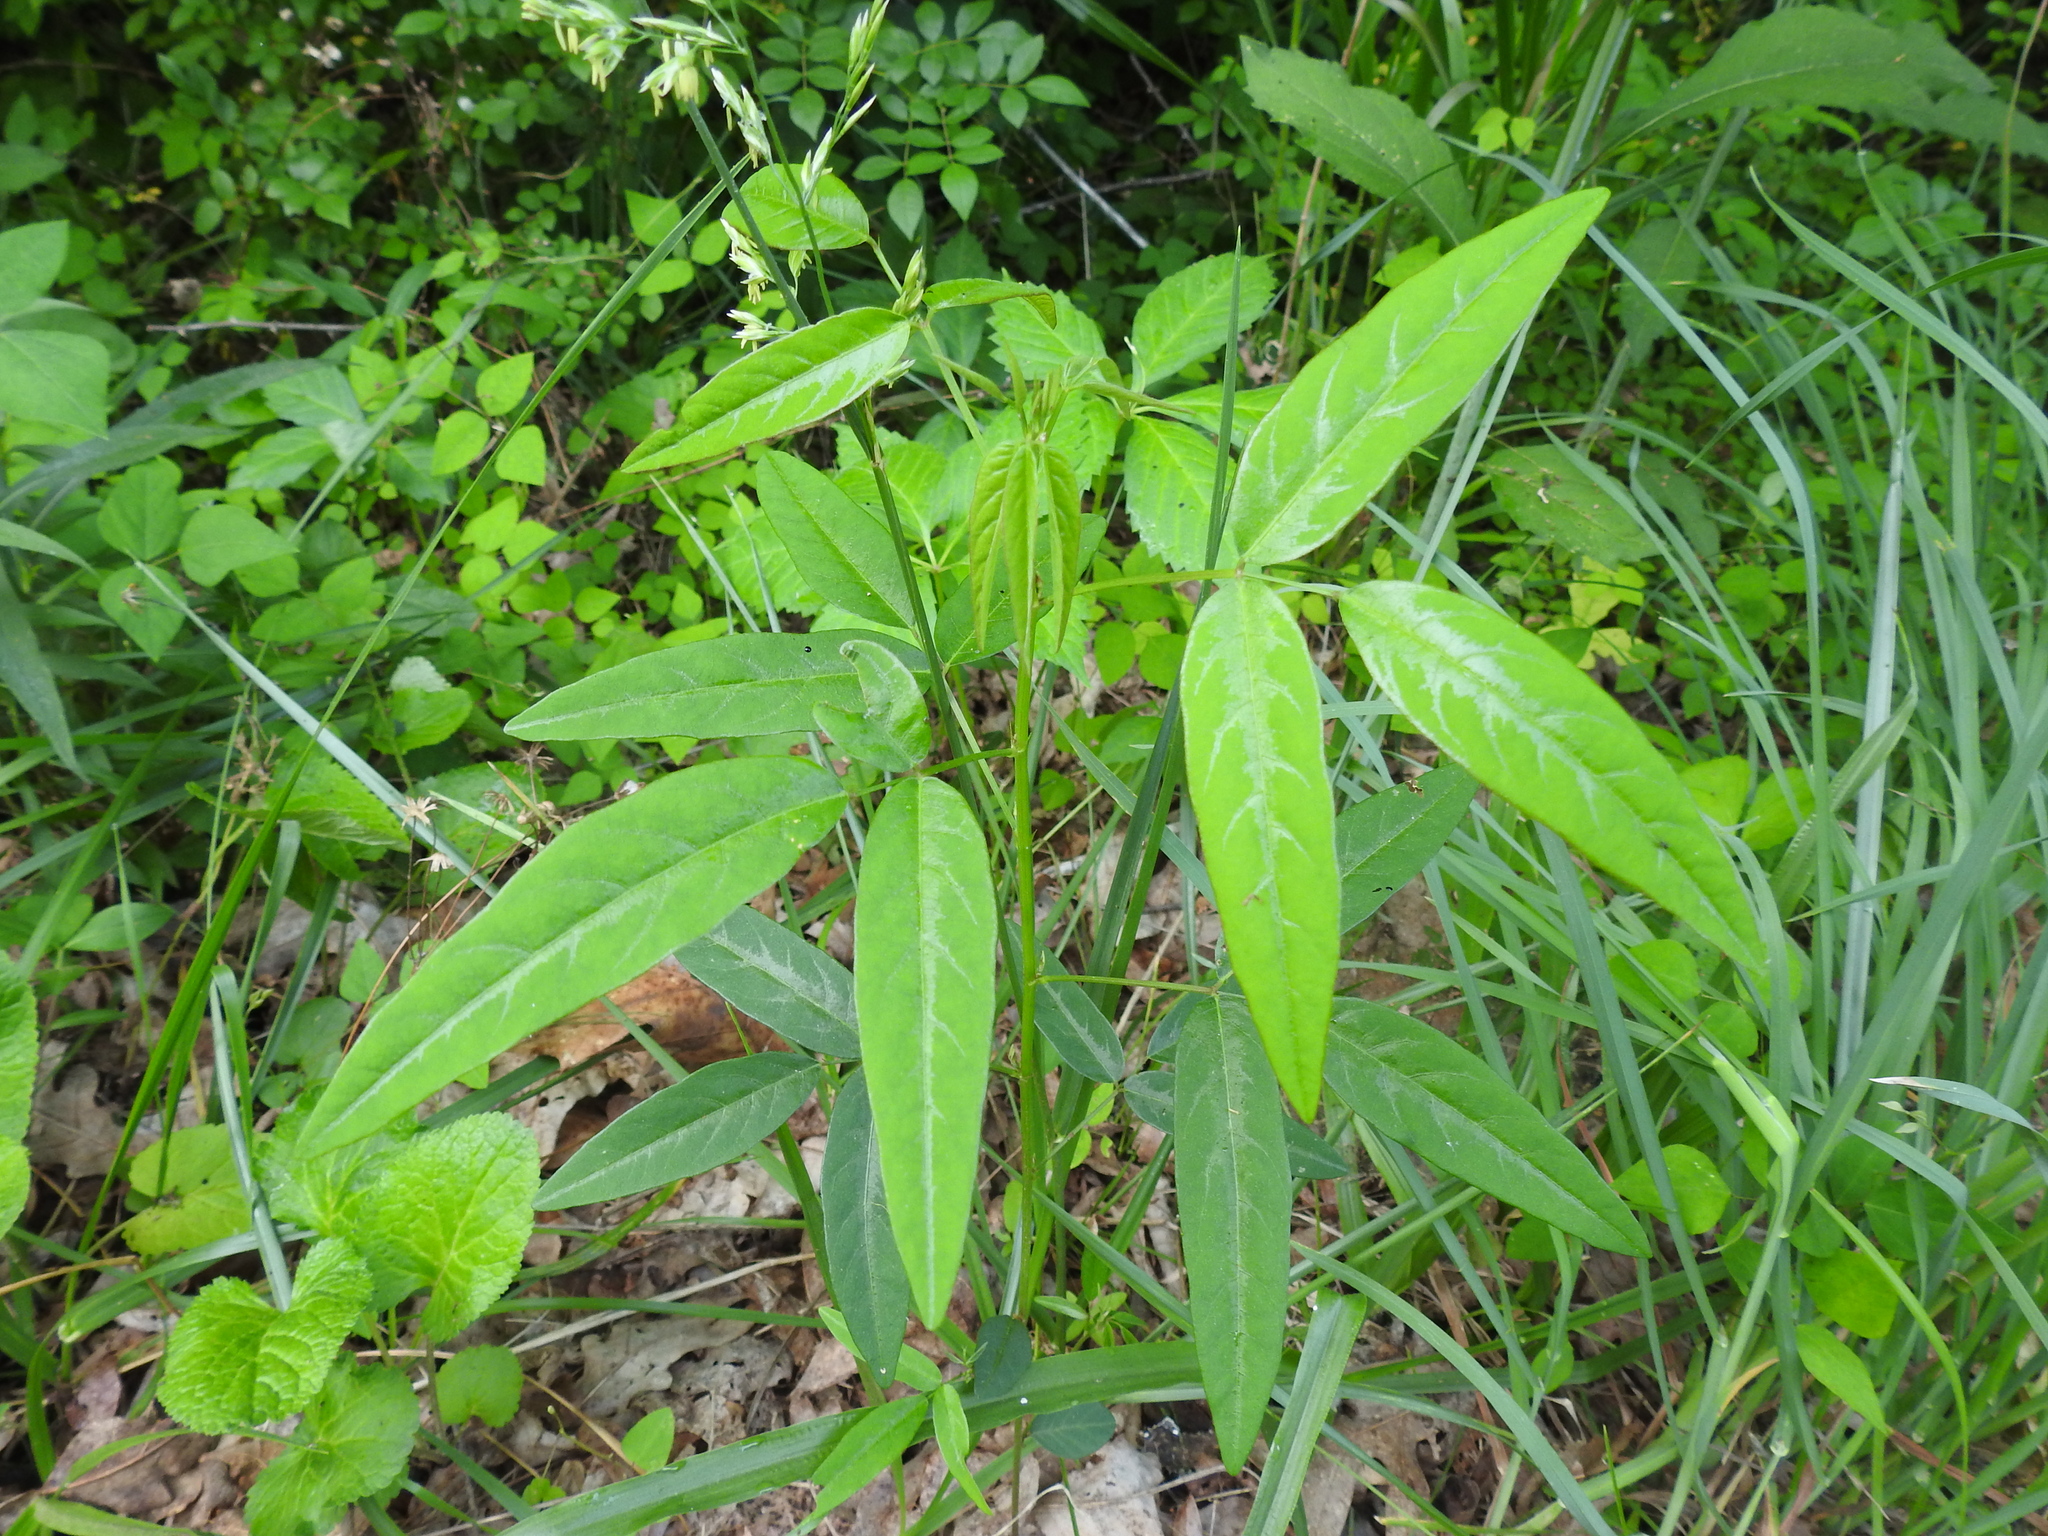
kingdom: Plantae
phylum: Tracheophyta
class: Magnoliopsida
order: Fabales
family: Fabaceae
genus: Desmodium
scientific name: Desmodium paniculatum
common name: Panicled tick-clover
